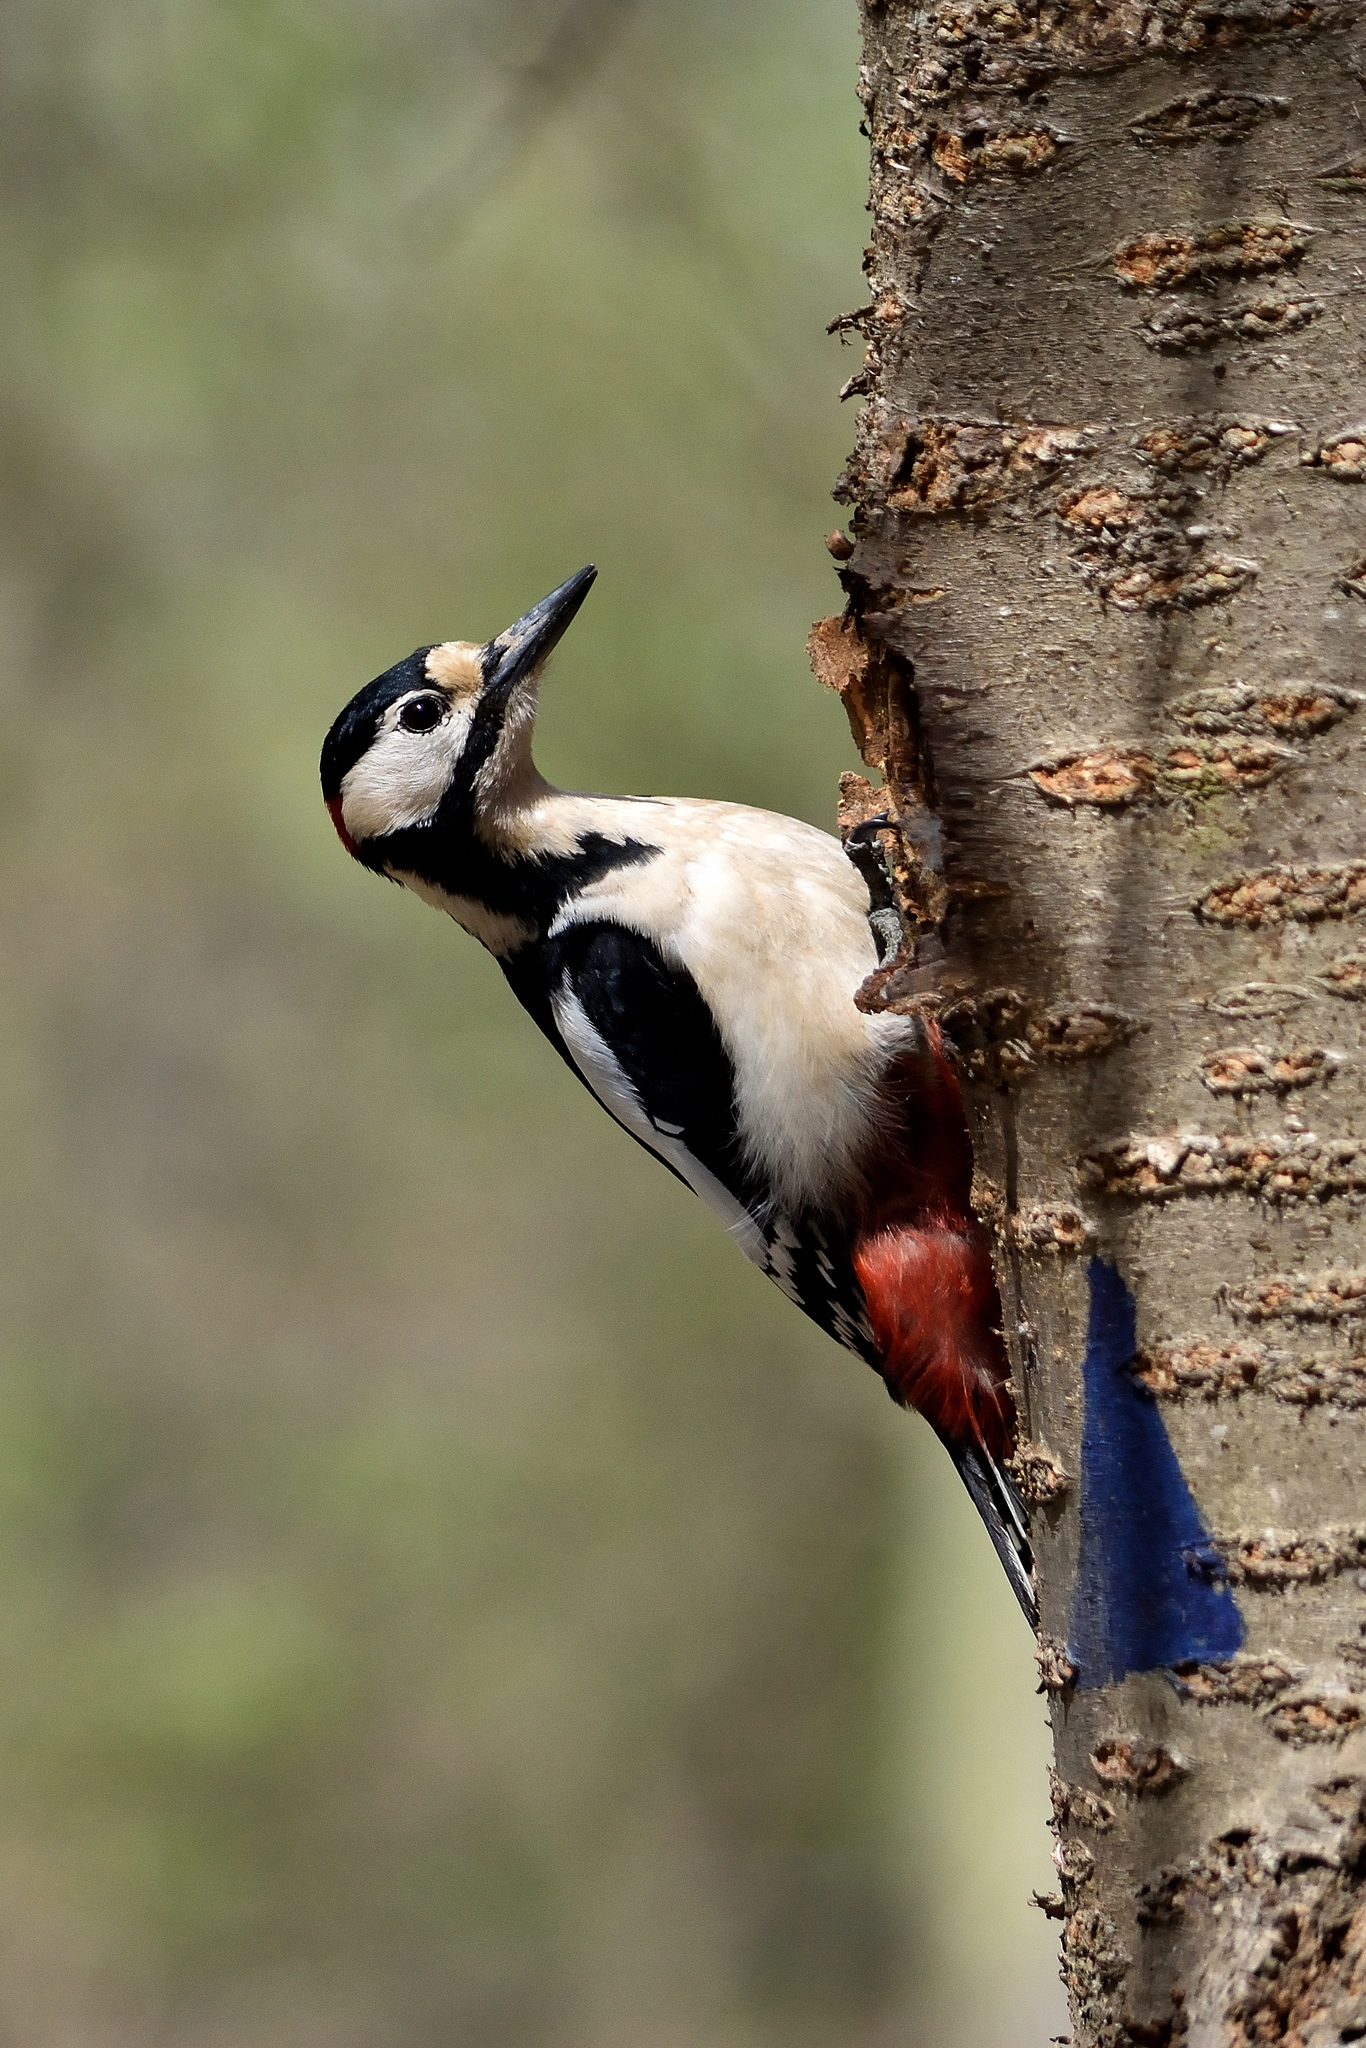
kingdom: Animalia
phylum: Chordata
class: Aves
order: Piciformes
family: Picidae
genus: Dendrocopos
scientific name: Dendrocopos major
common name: Great spotted woodpecker
